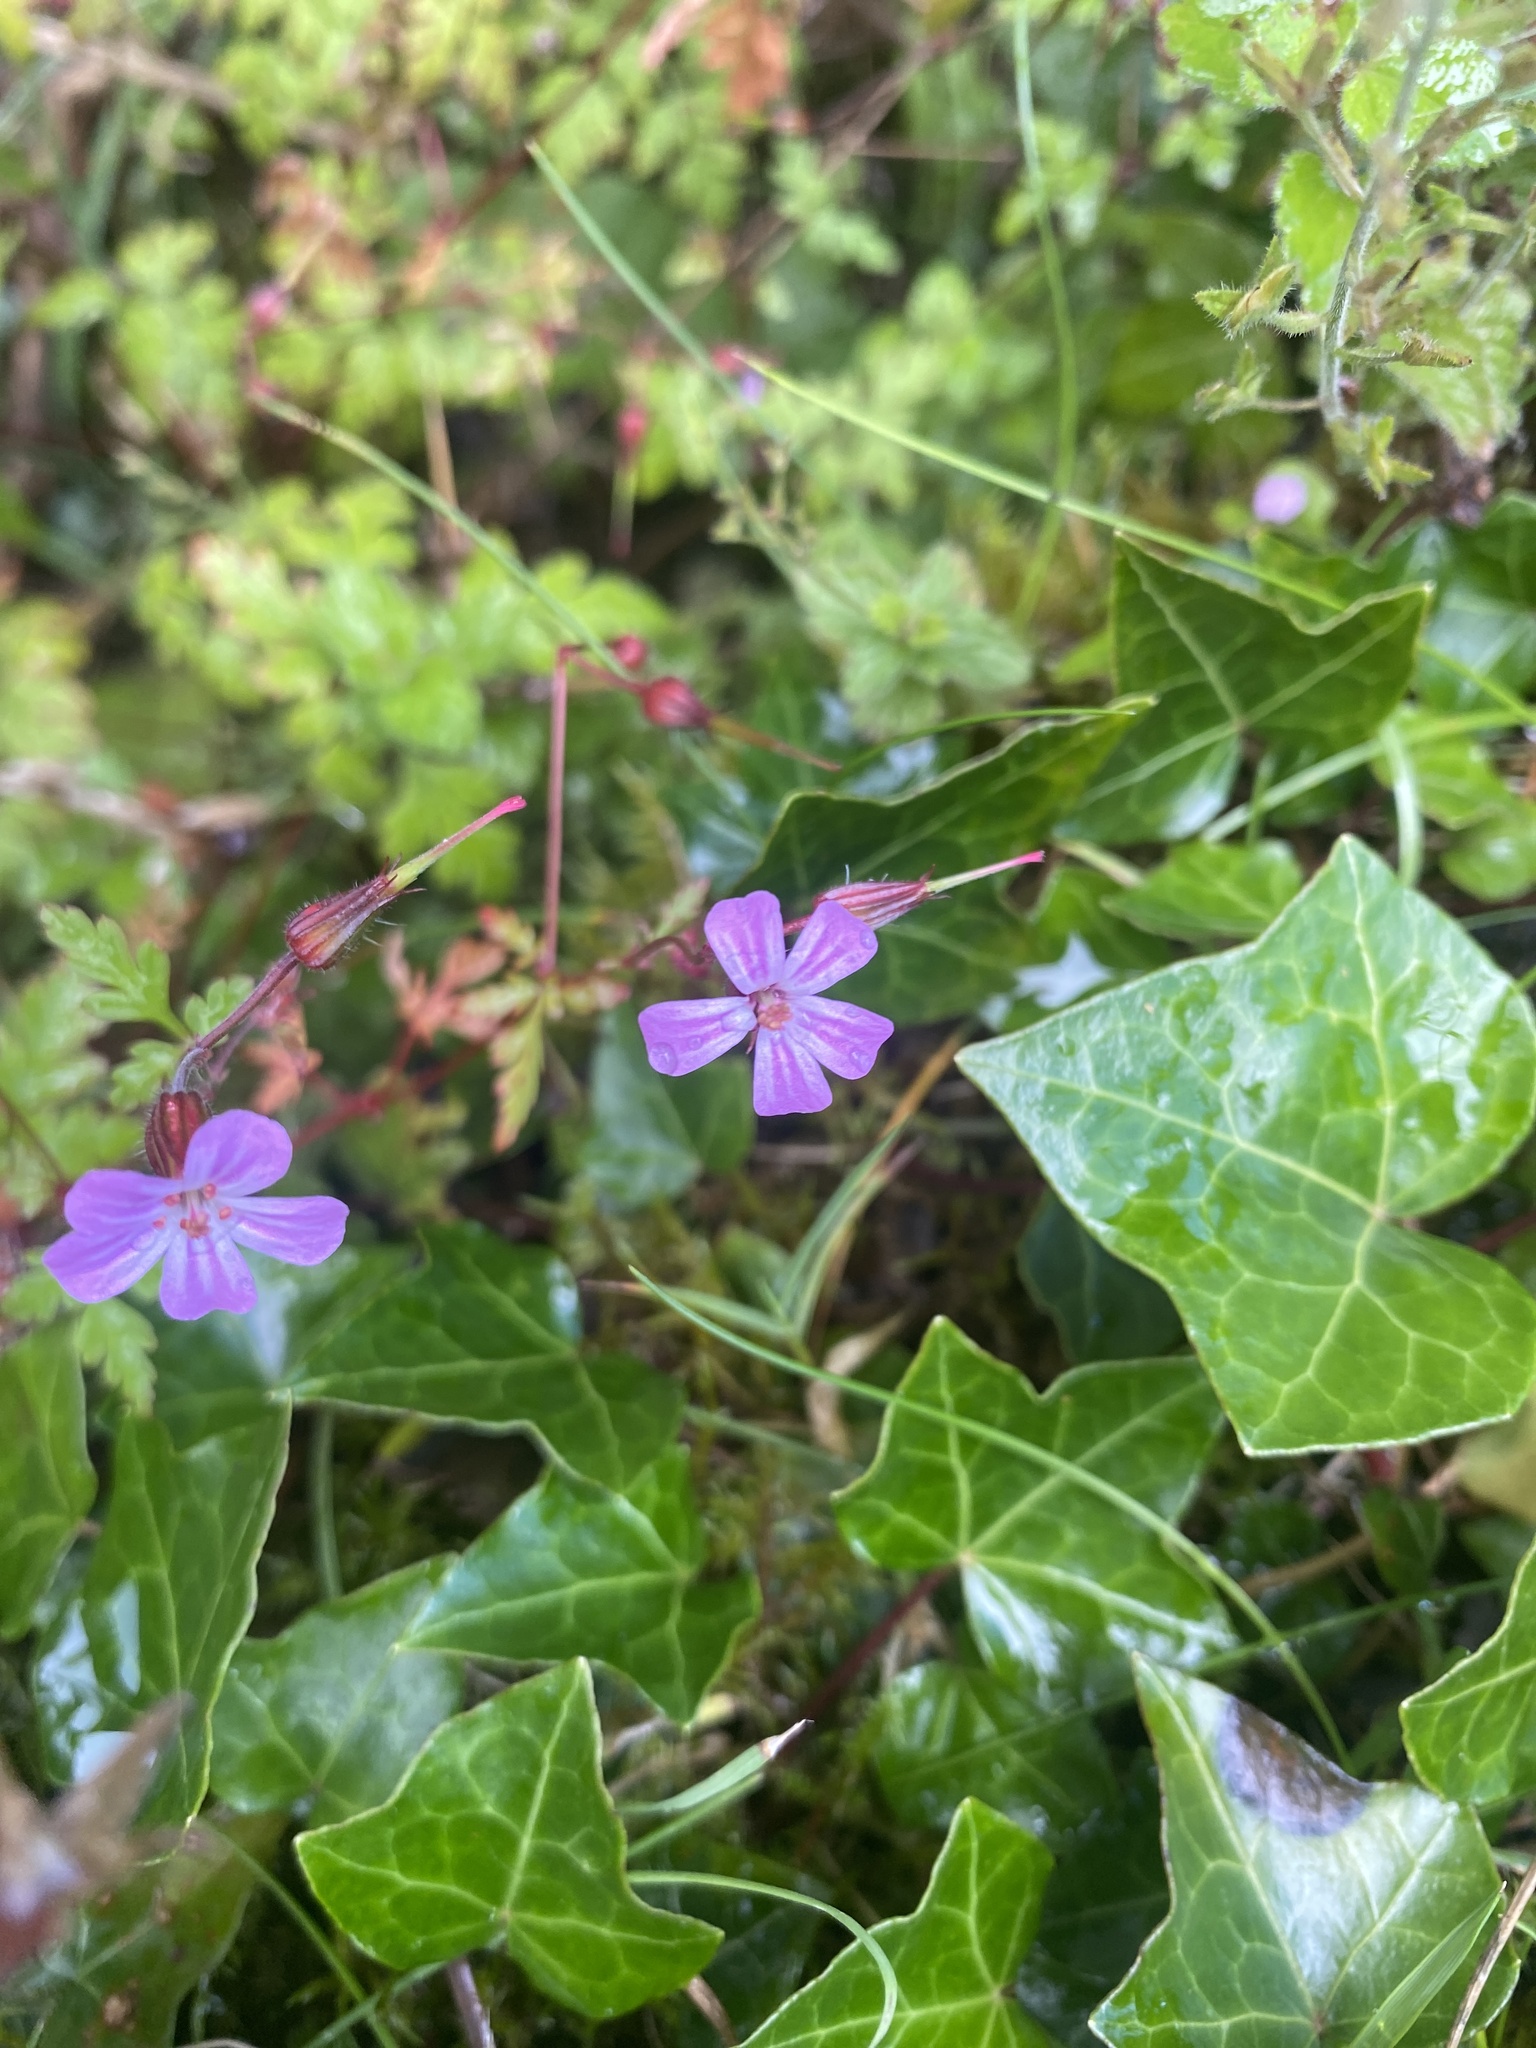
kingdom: Plantae
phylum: Tracheophyta
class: Magnoliopsida
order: Geraniales
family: Geraniaceae
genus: Geranium
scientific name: Geranium robertianum
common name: Herb-robert
